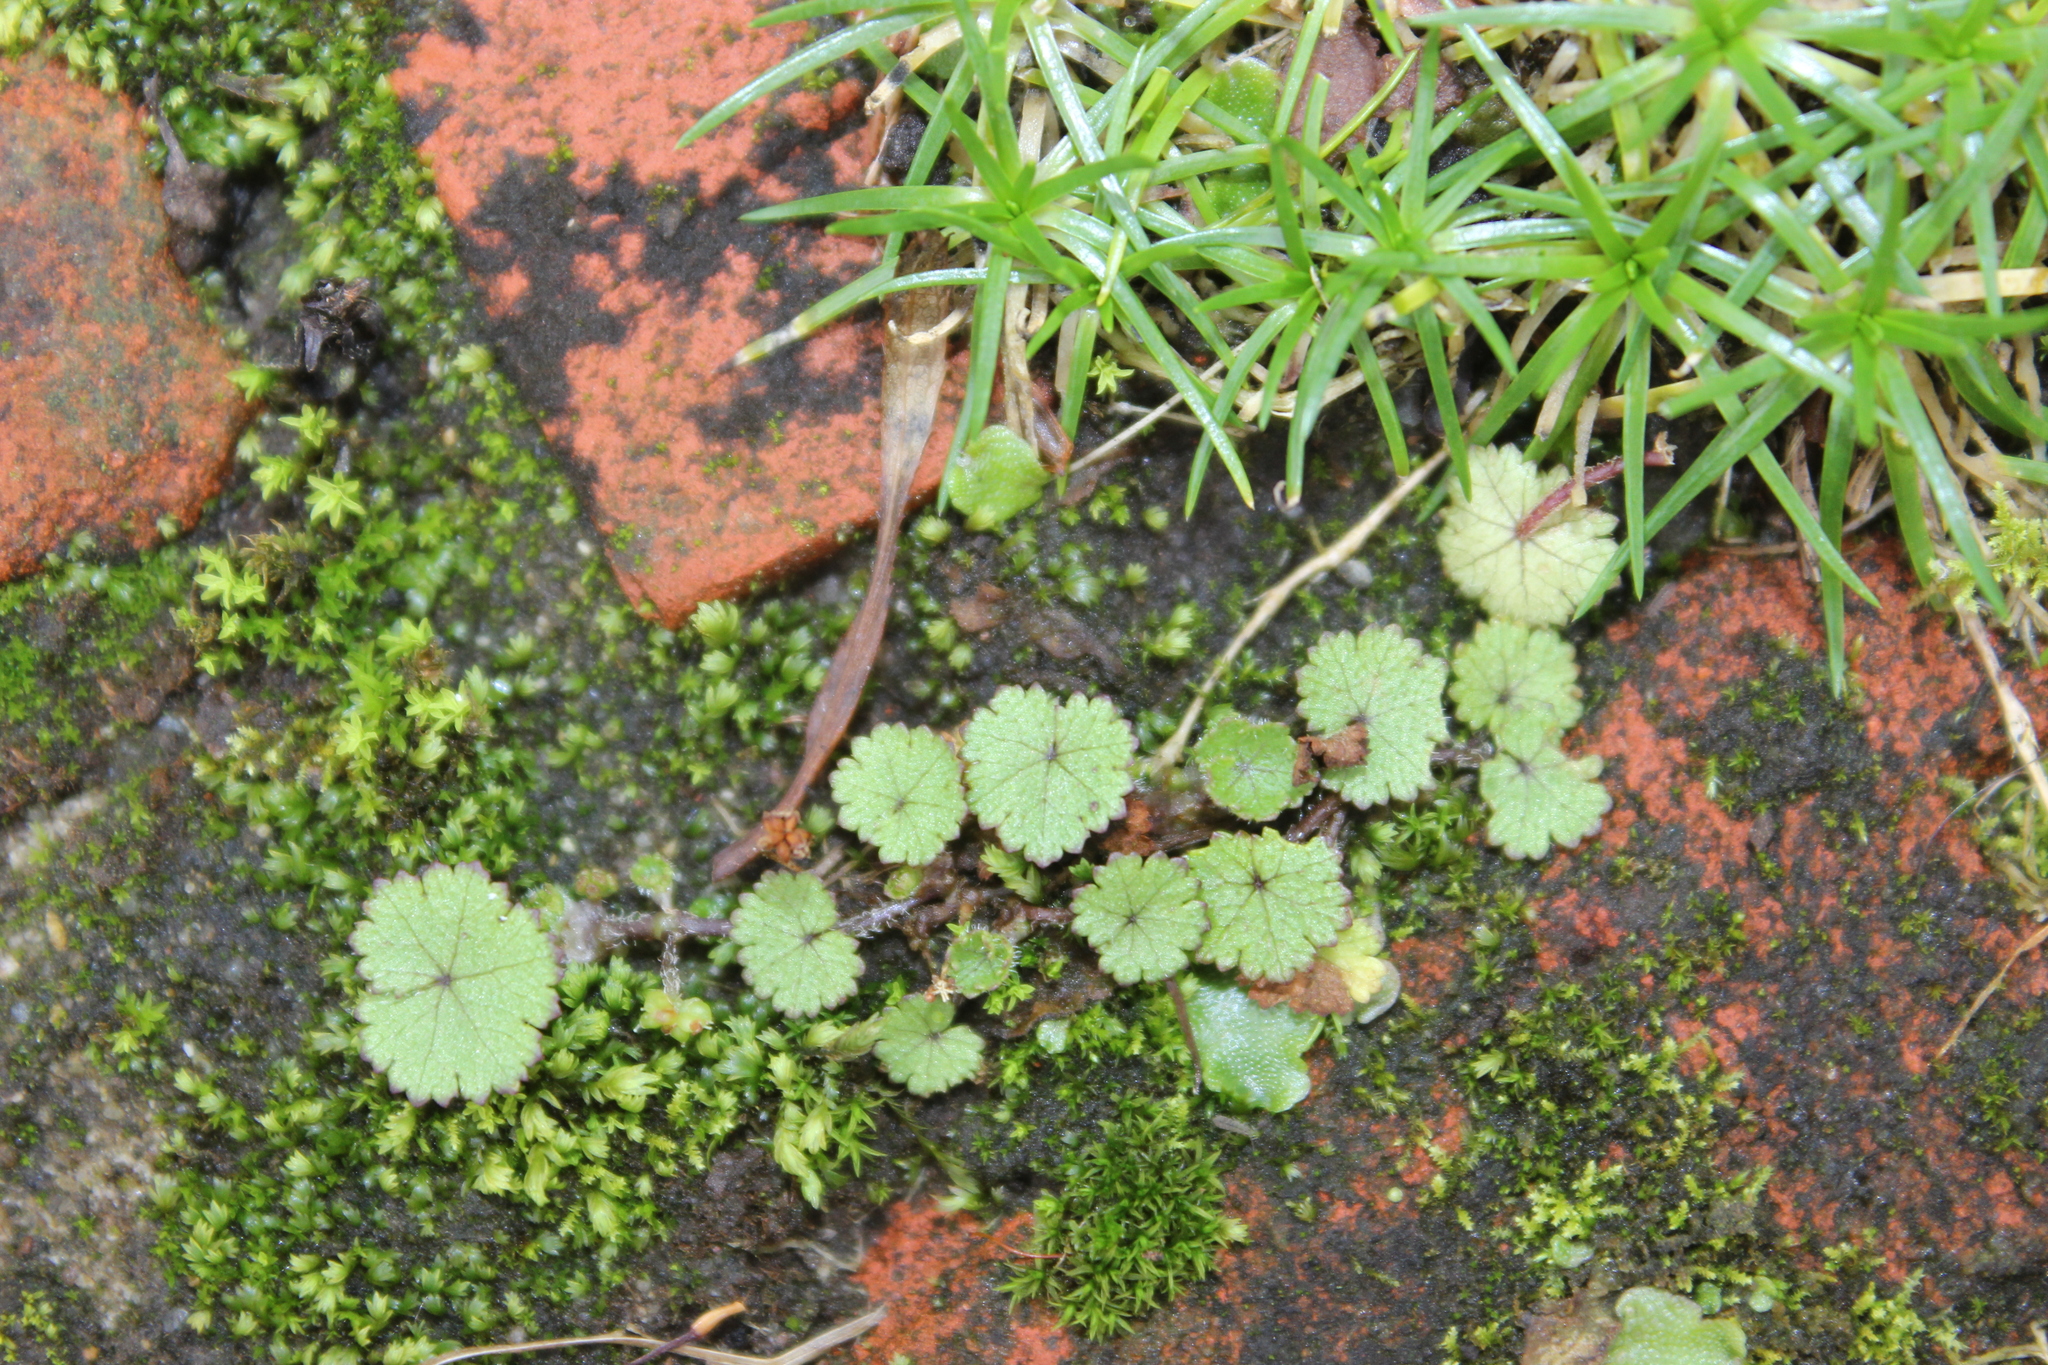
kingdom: Plantae
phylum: Tracheophyta
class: Magnoliopsida
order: Apiales
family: Araliaceae
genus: Hydrocotyle
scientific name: Hydrocotyle moschata
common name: Hairy pennywort
